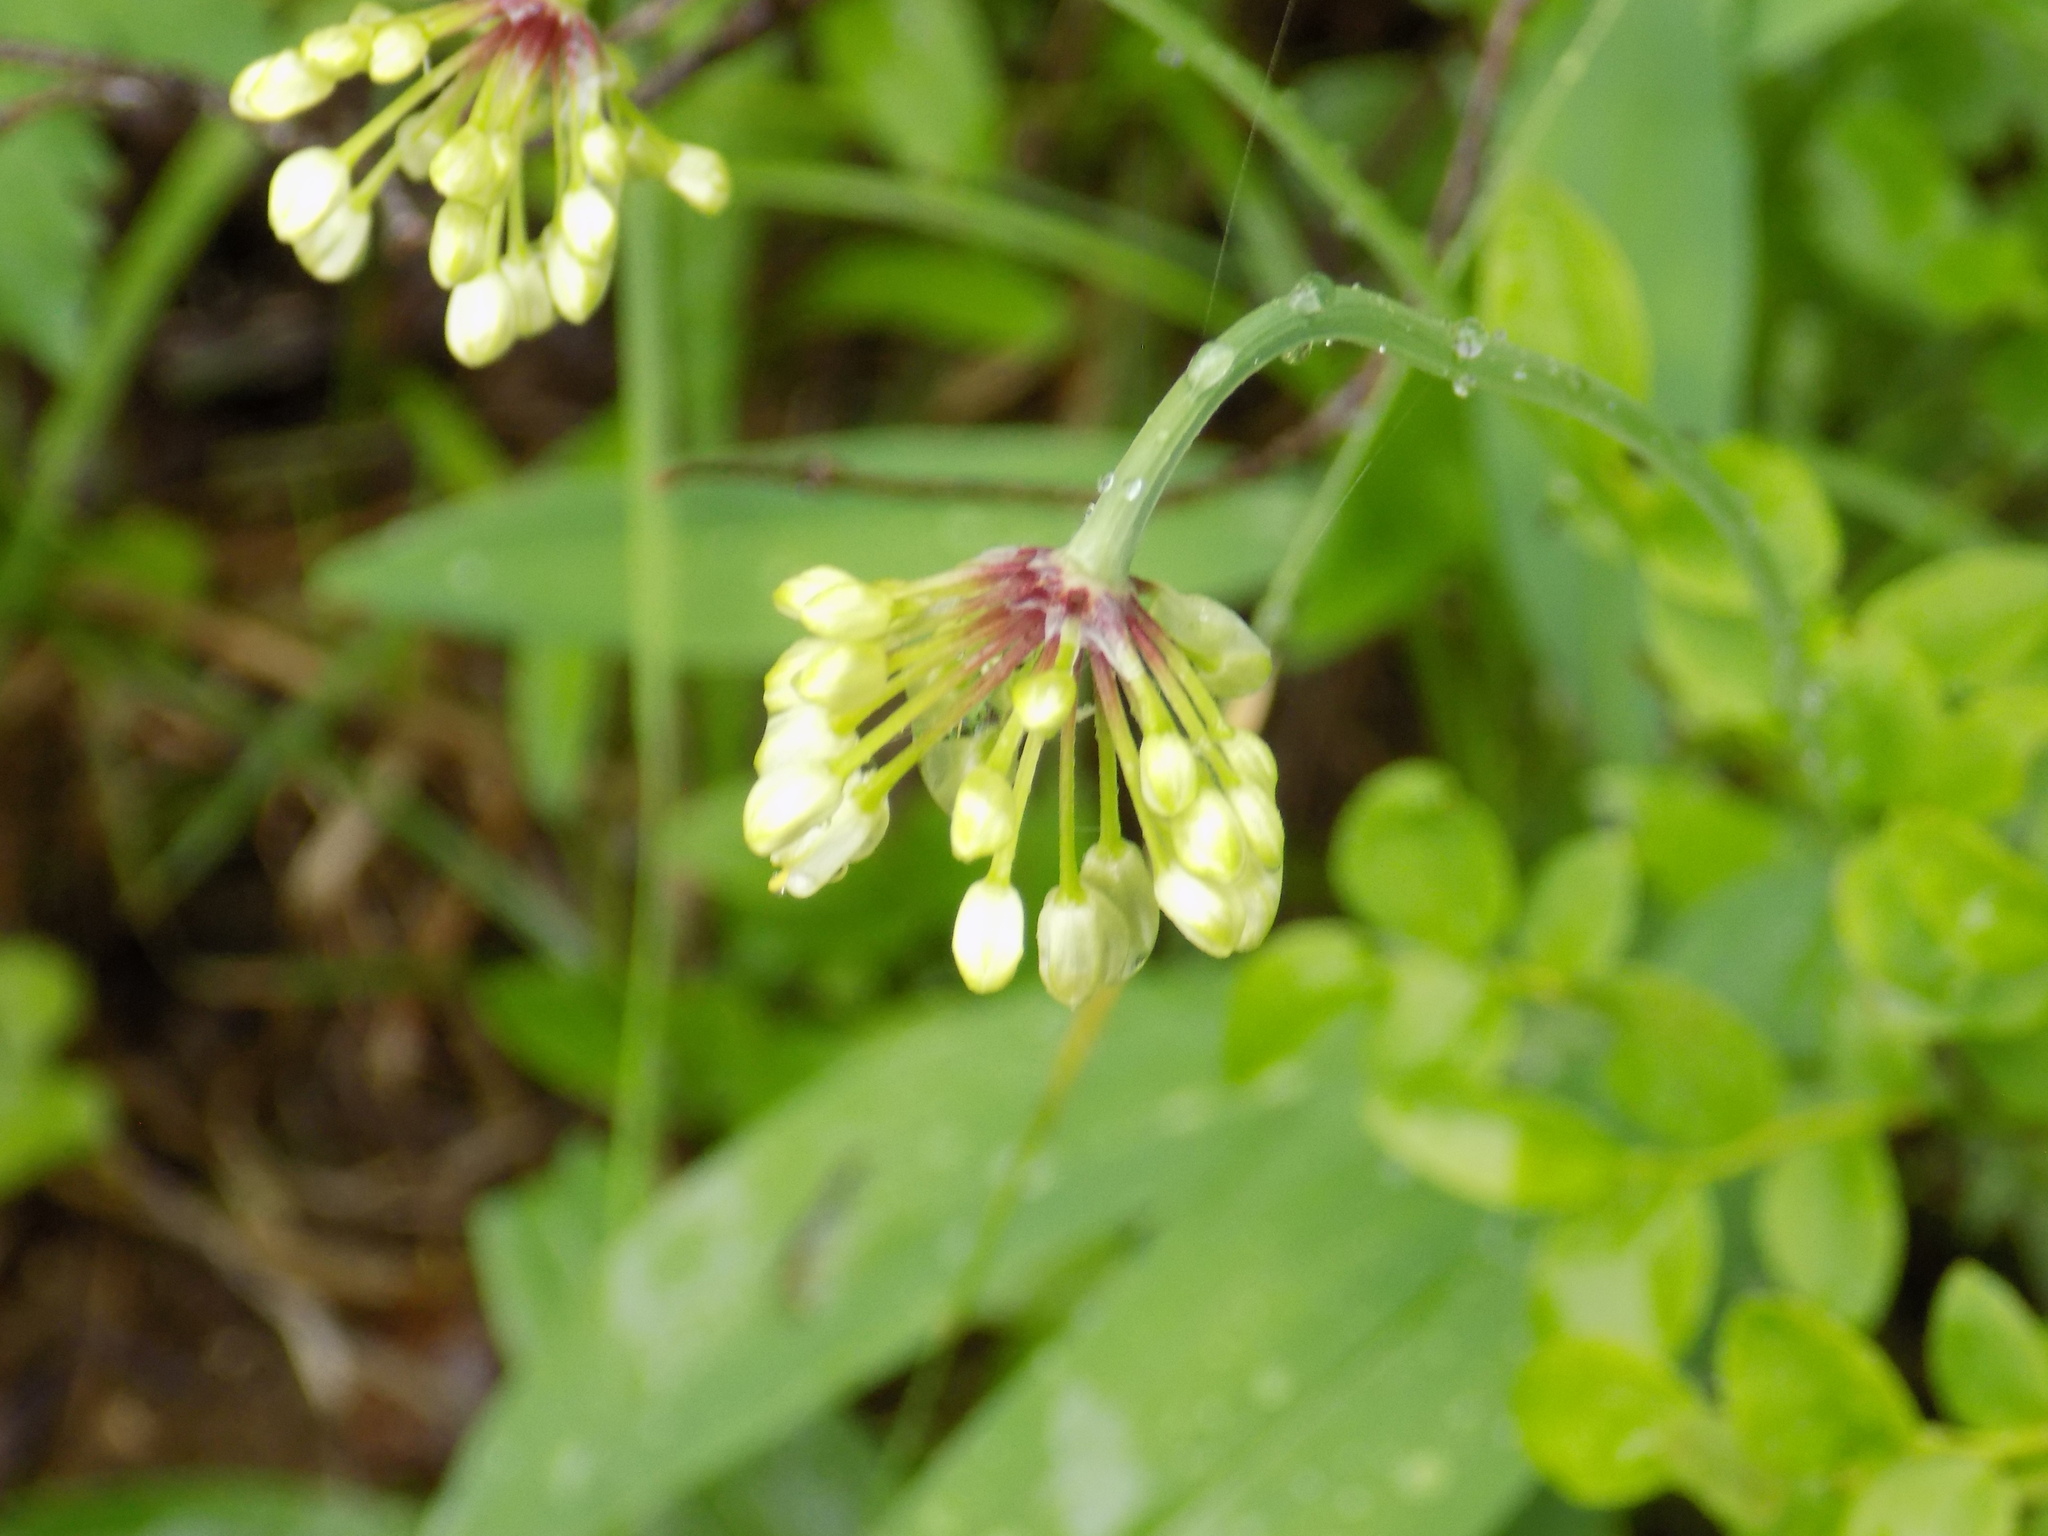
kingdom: Plantae
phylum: Tracheophyta
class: Liliopsida
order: Asparagales
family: Amaryllidaceae
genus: Allium
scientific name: Allium microdictyon
